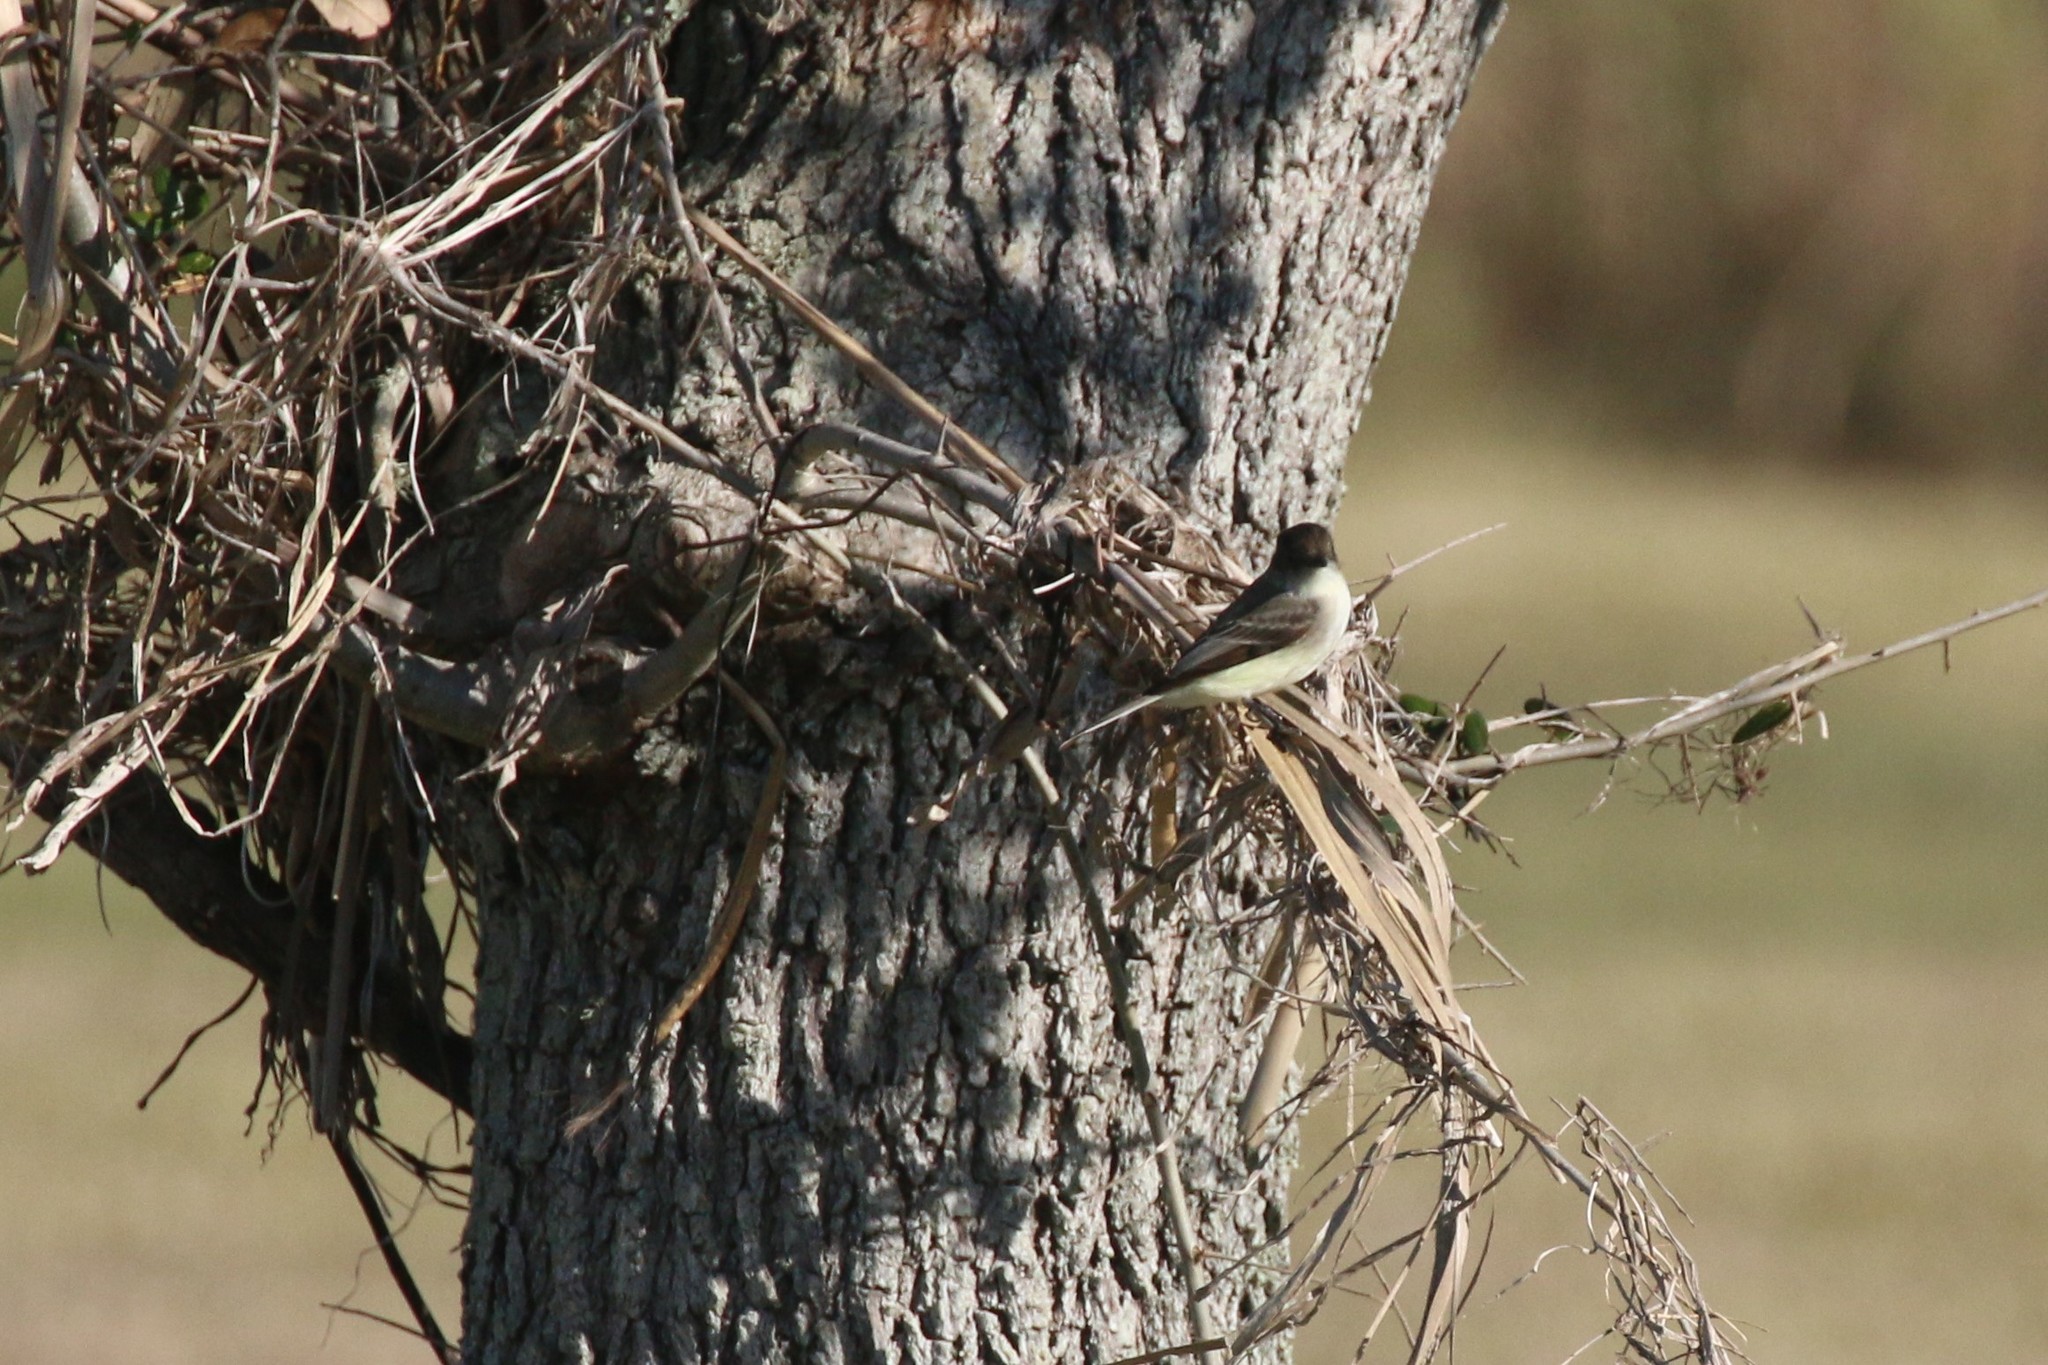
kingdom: Animalia
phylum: Chordata
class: Aves
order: Passeriformes
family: Tyrannidae
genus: Sayornis
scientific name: Sayornis phoebe
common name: Eastern phoebe
